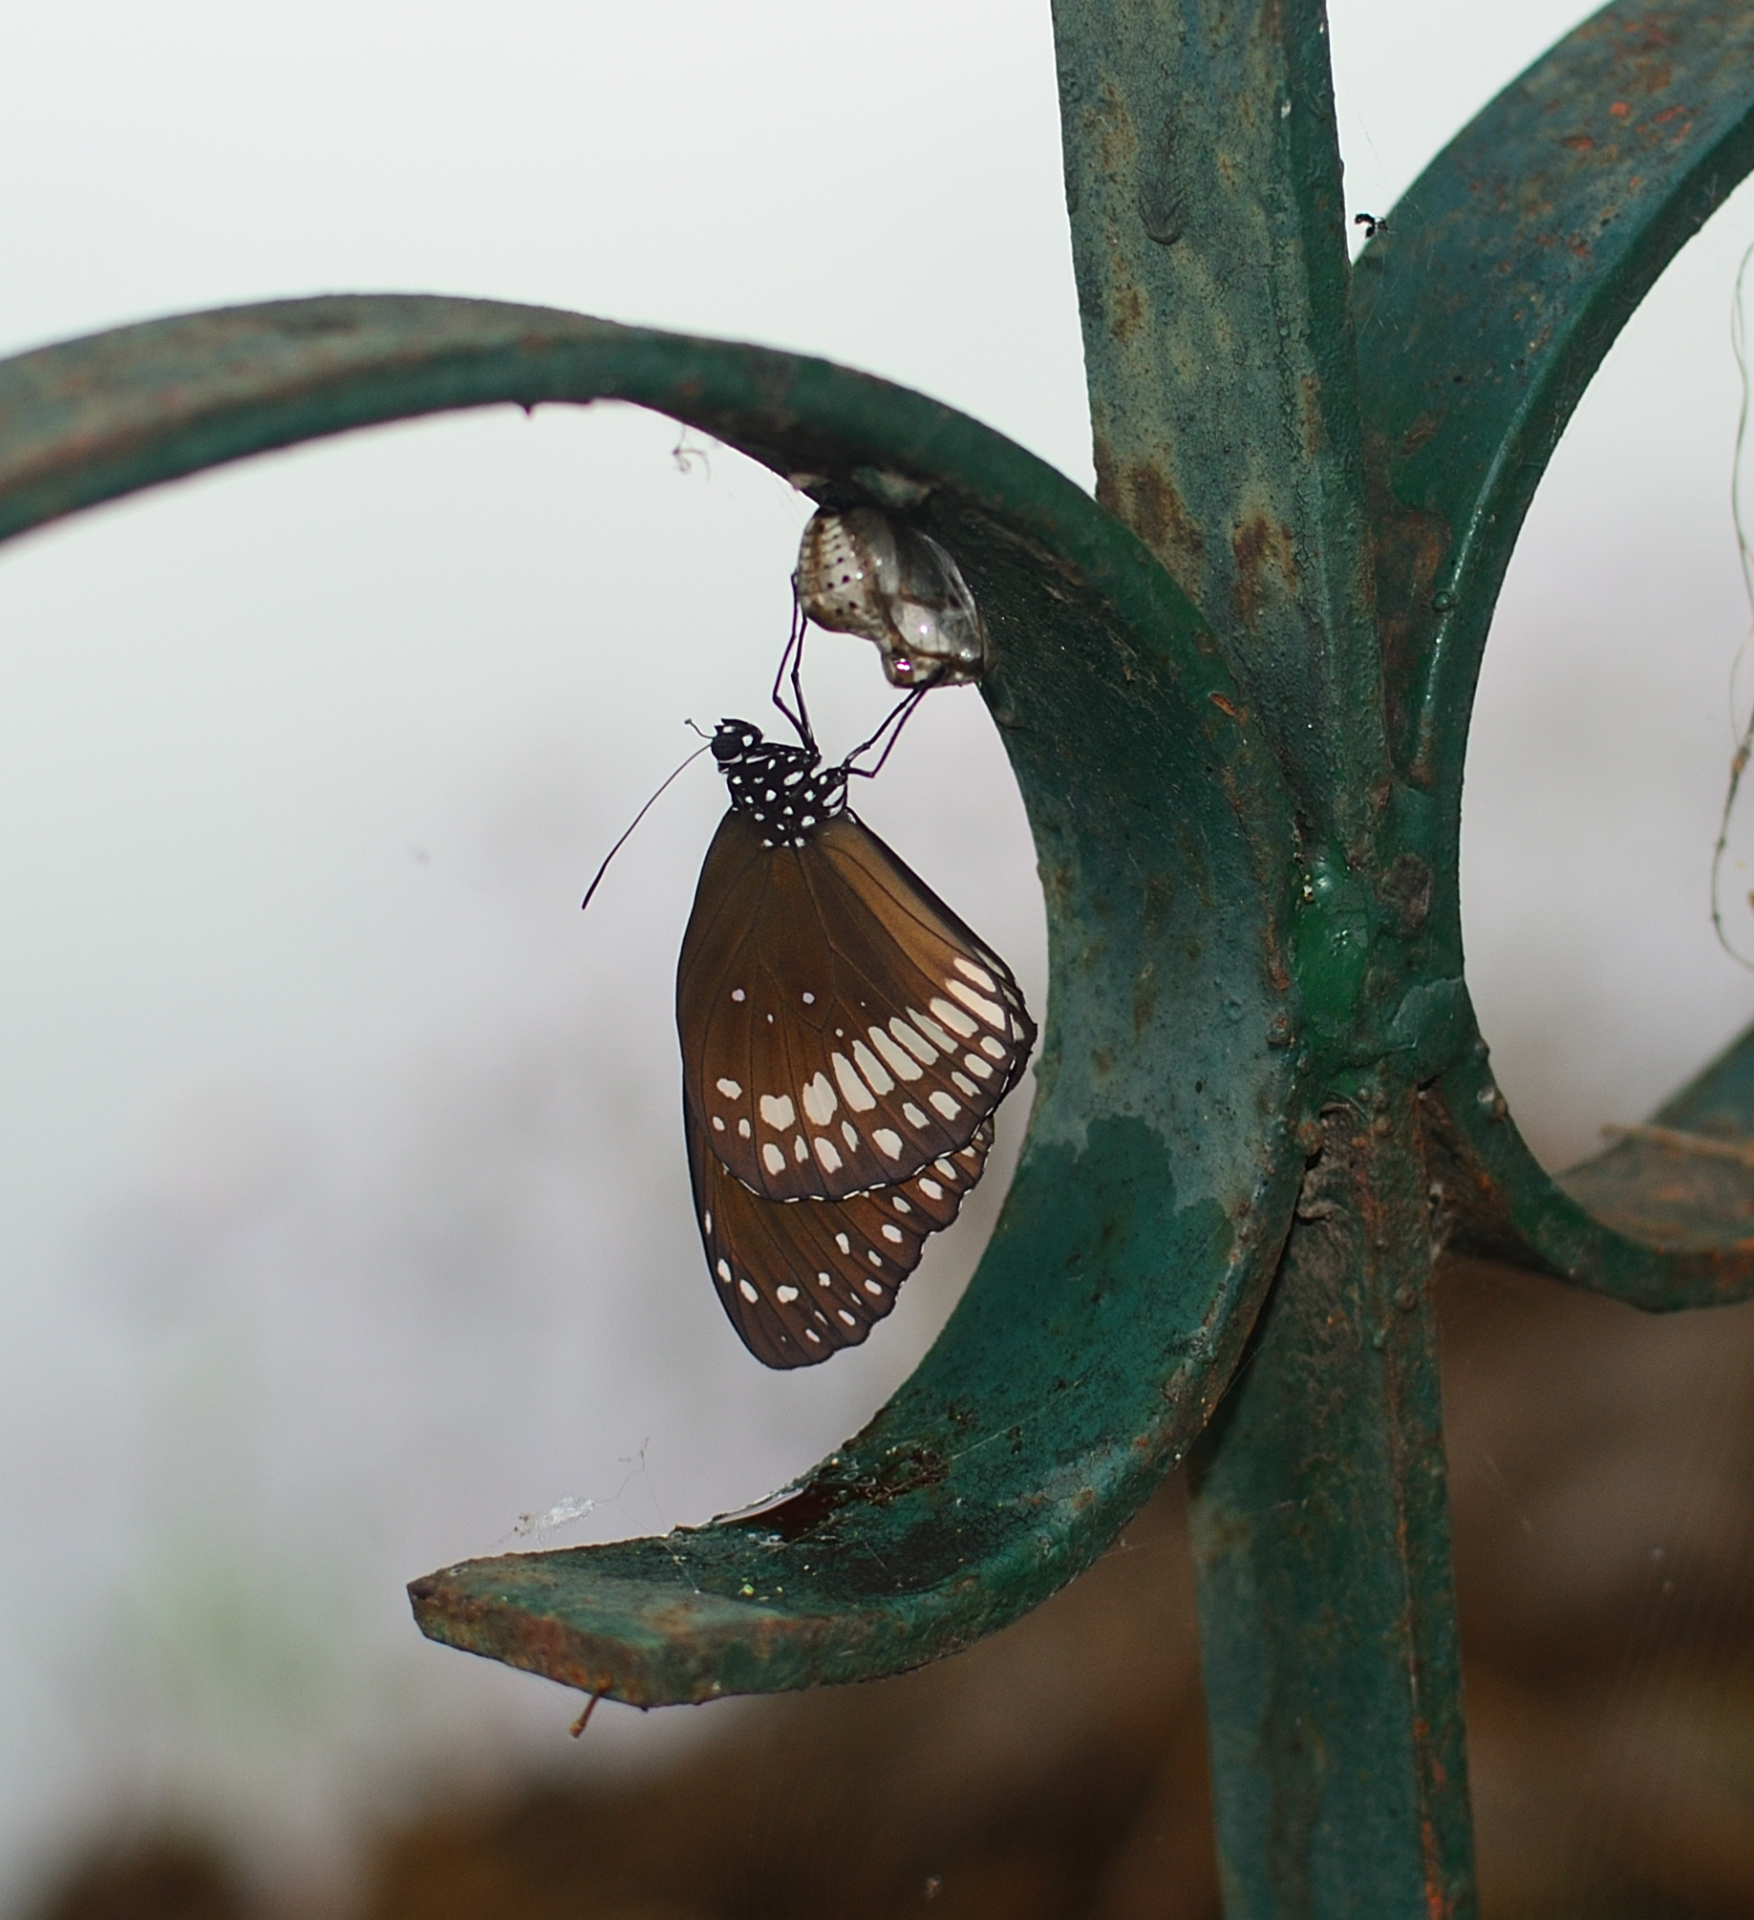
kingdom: Animalia
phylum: Arthropoda
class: Insecta
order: Lepidoptera
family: Nymphalidae
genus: Euploea
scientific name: Euploea core
